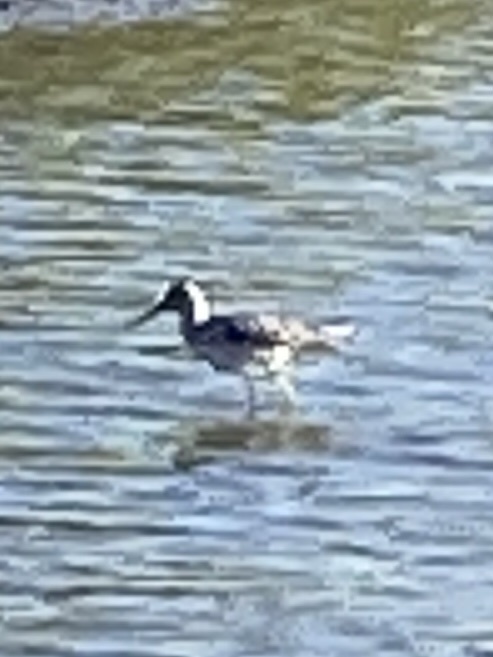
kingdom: Animalia
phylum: Chordata
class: Aves
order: Charadriiformes
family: Scolopacidae
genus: Tringa
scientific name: Tringa nebularia
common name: Common greenshank
